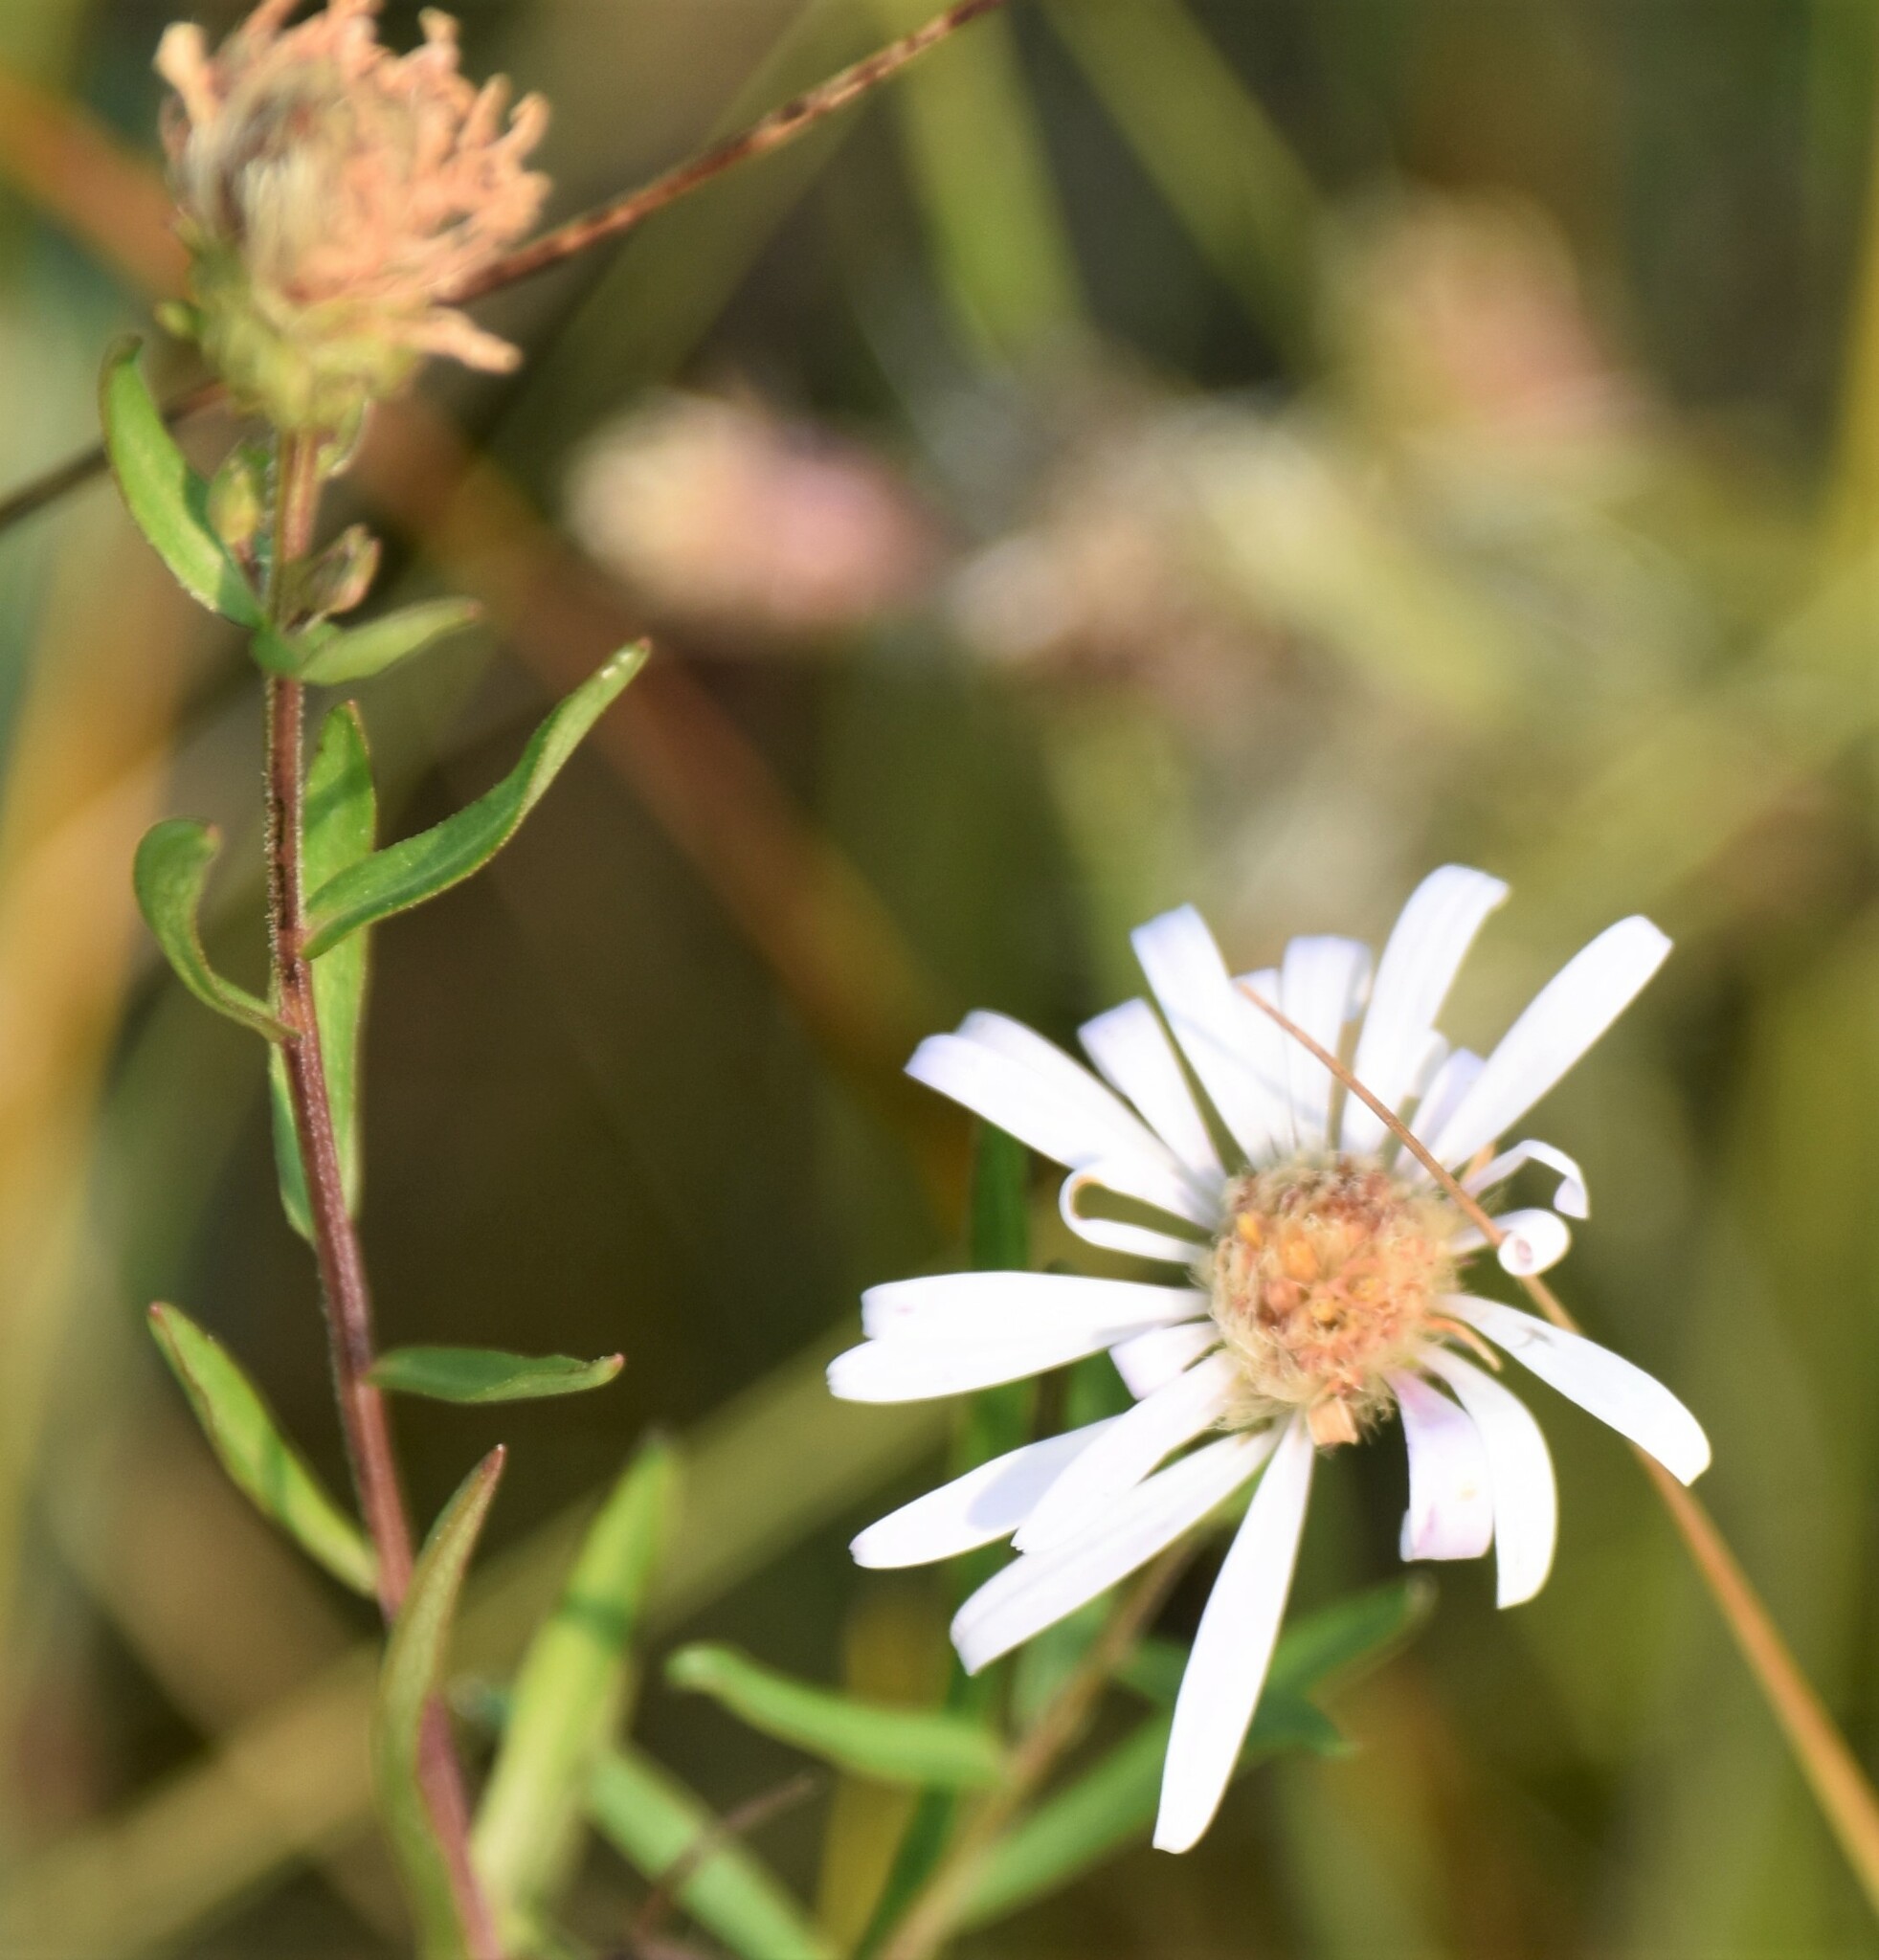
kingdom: Plantae
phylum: Tracheophyta
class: Magnoliopsida
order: Asterales
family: Asteraceae
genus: Symphyotrichum
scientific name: Symphyotrichum boreale
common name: Northern bog aster
